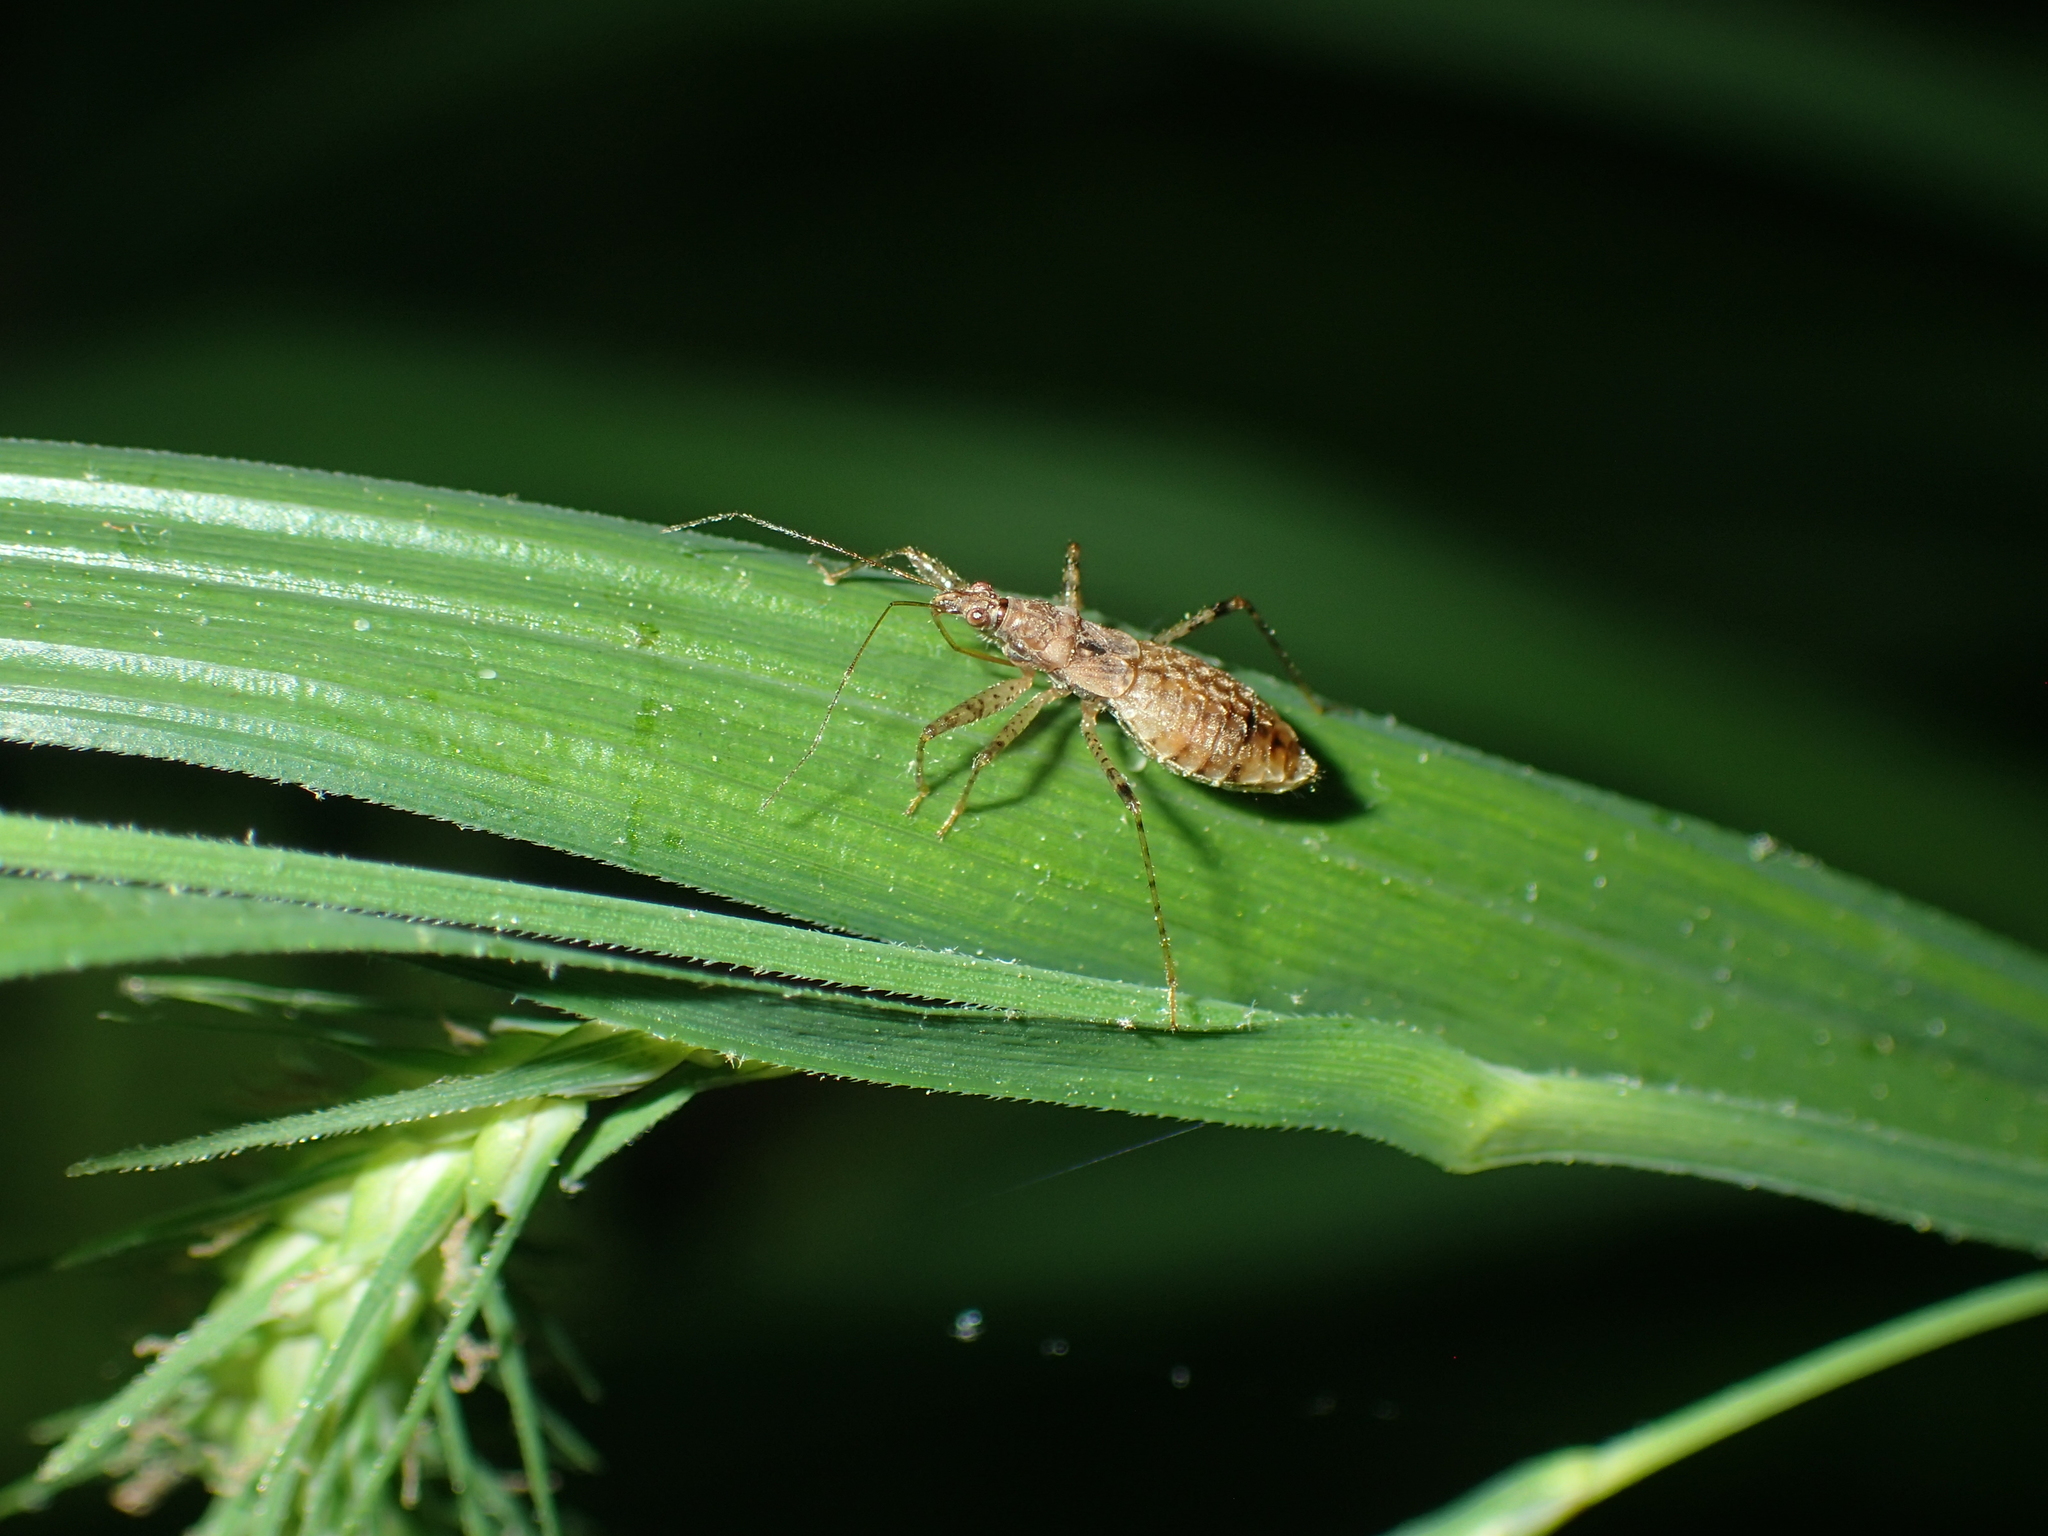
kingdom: Animalia
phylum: Arthropoda
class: Insecta
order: Hemiptera
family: Nabidae
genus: Hoplistoscelis
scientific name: Hoplistoscelis pallescens
